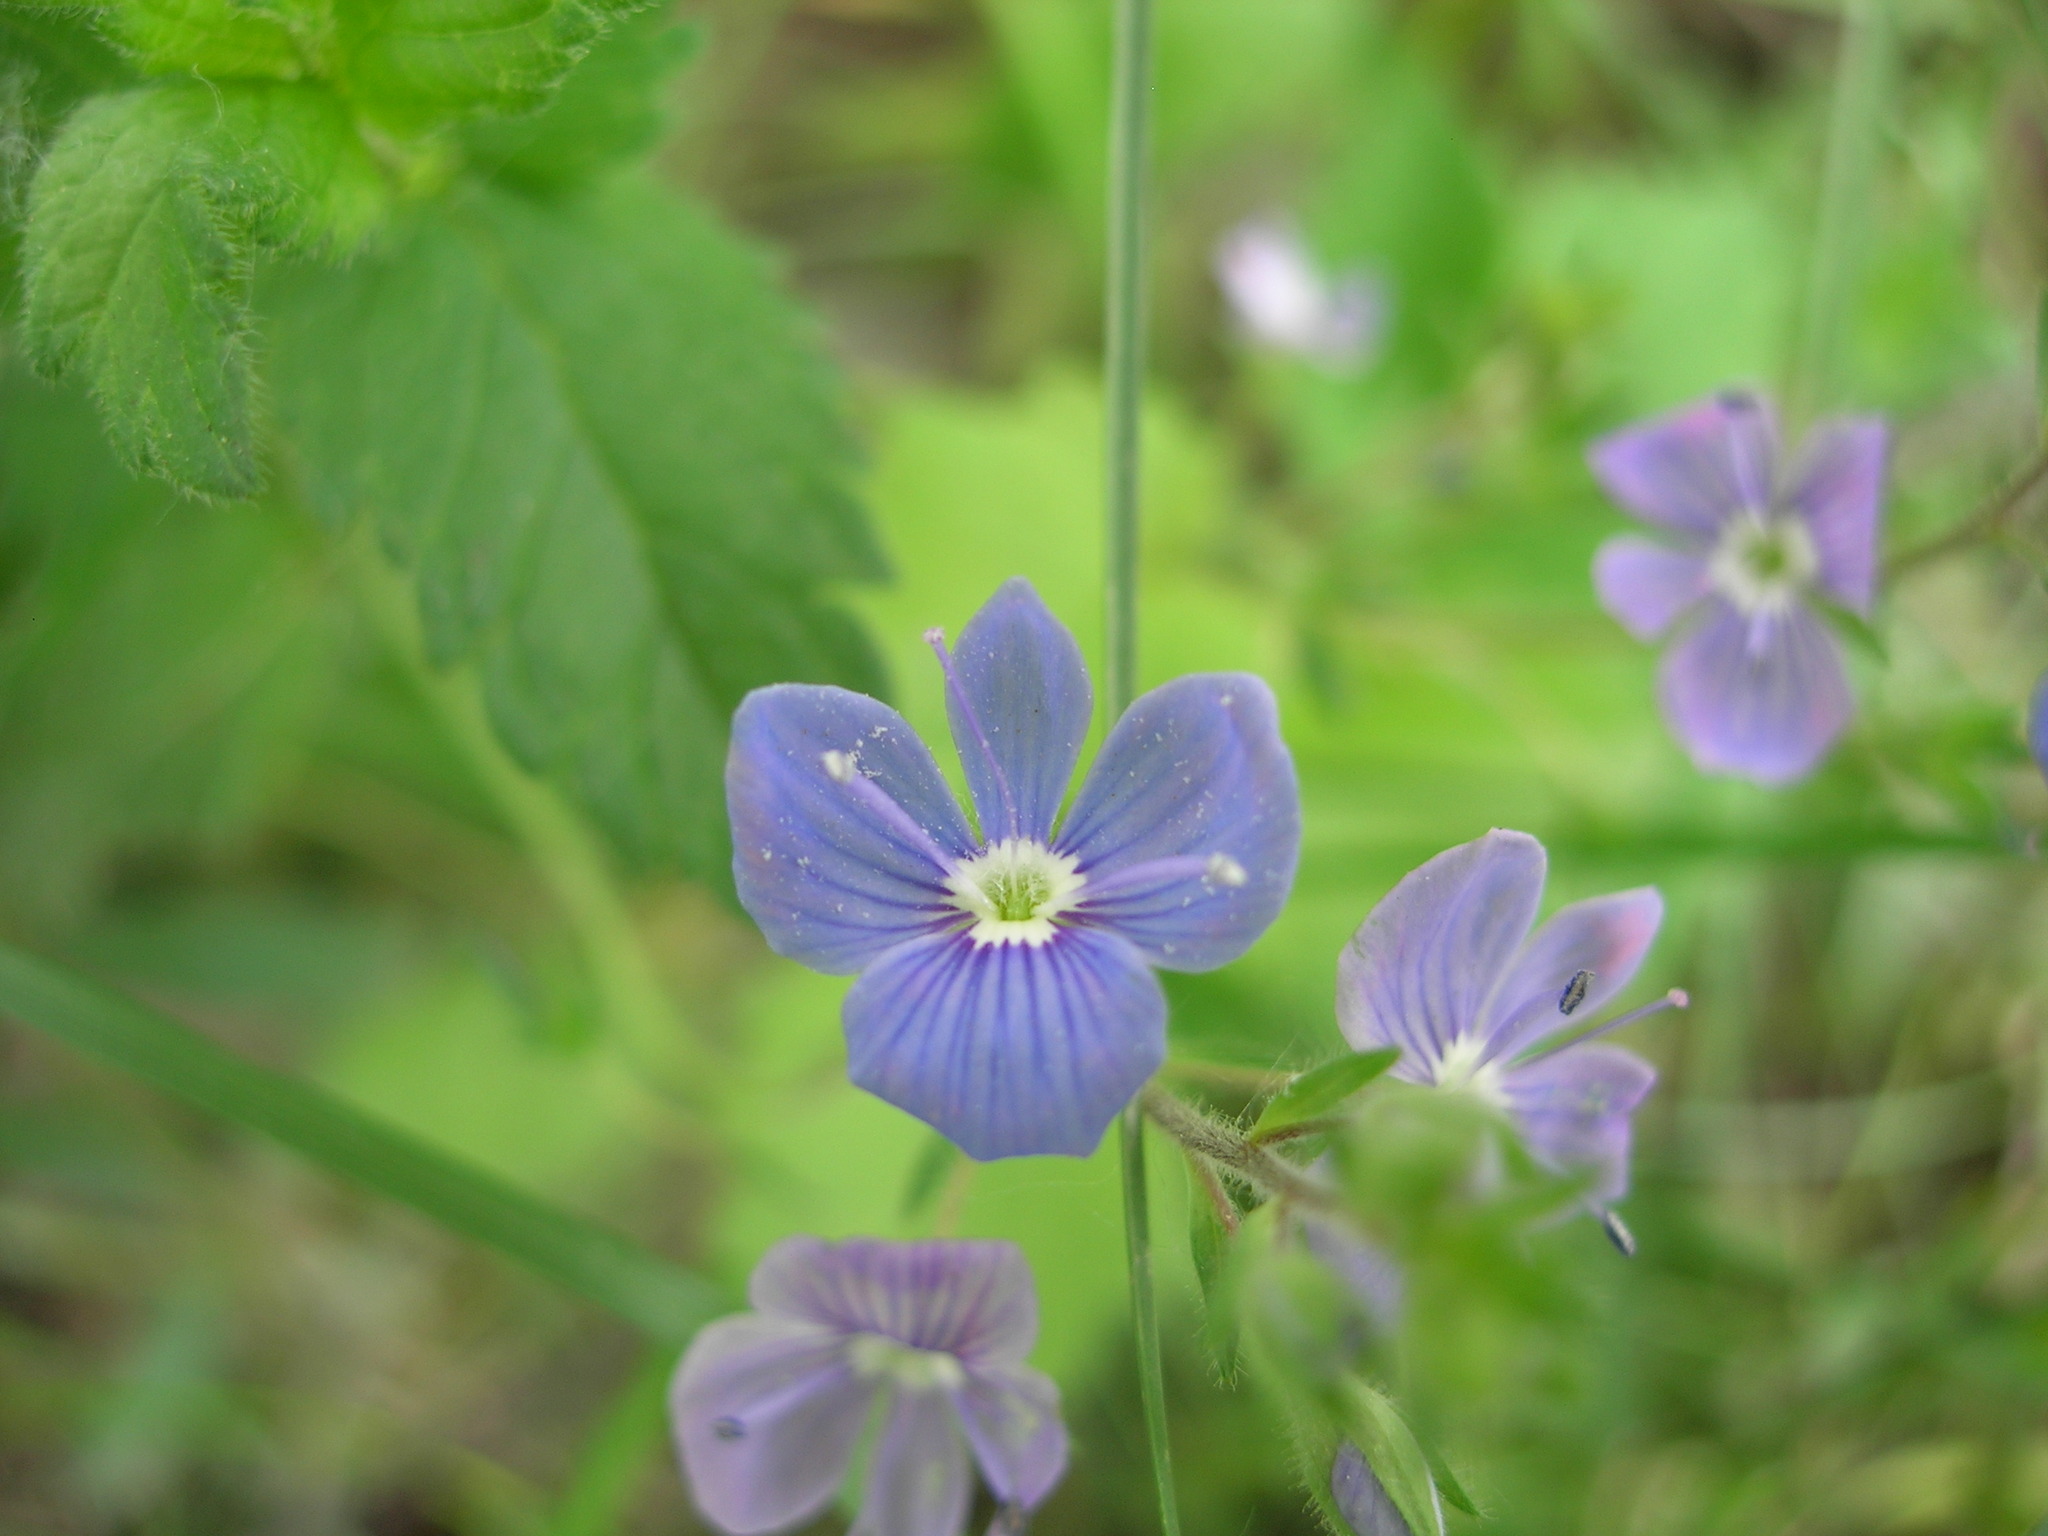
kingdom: Plantae
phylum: Tracheophyta
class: Magnoliopsida
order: Lamiales
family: Plantaginaceae
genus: Veronica
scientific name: Veronica chamaedrys
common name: Germander speedwell
